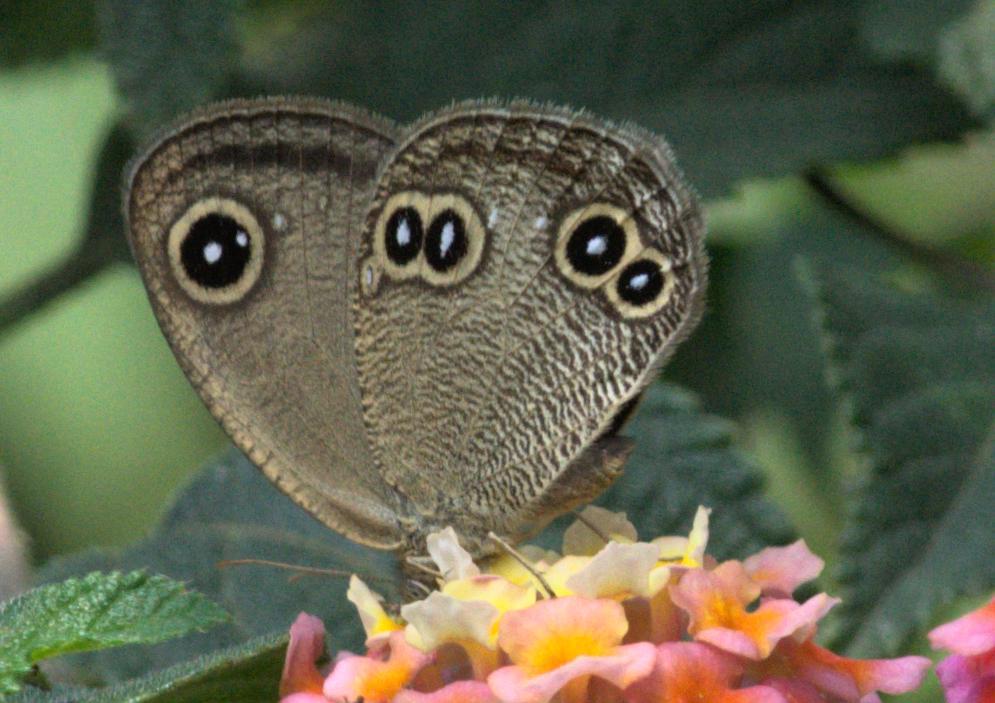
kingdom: Animalia
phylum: Arthropoda
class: Insecta
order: Lepidoptera
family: Nymphalidae
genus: Callerebia
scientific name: Callerebia hyagriva
